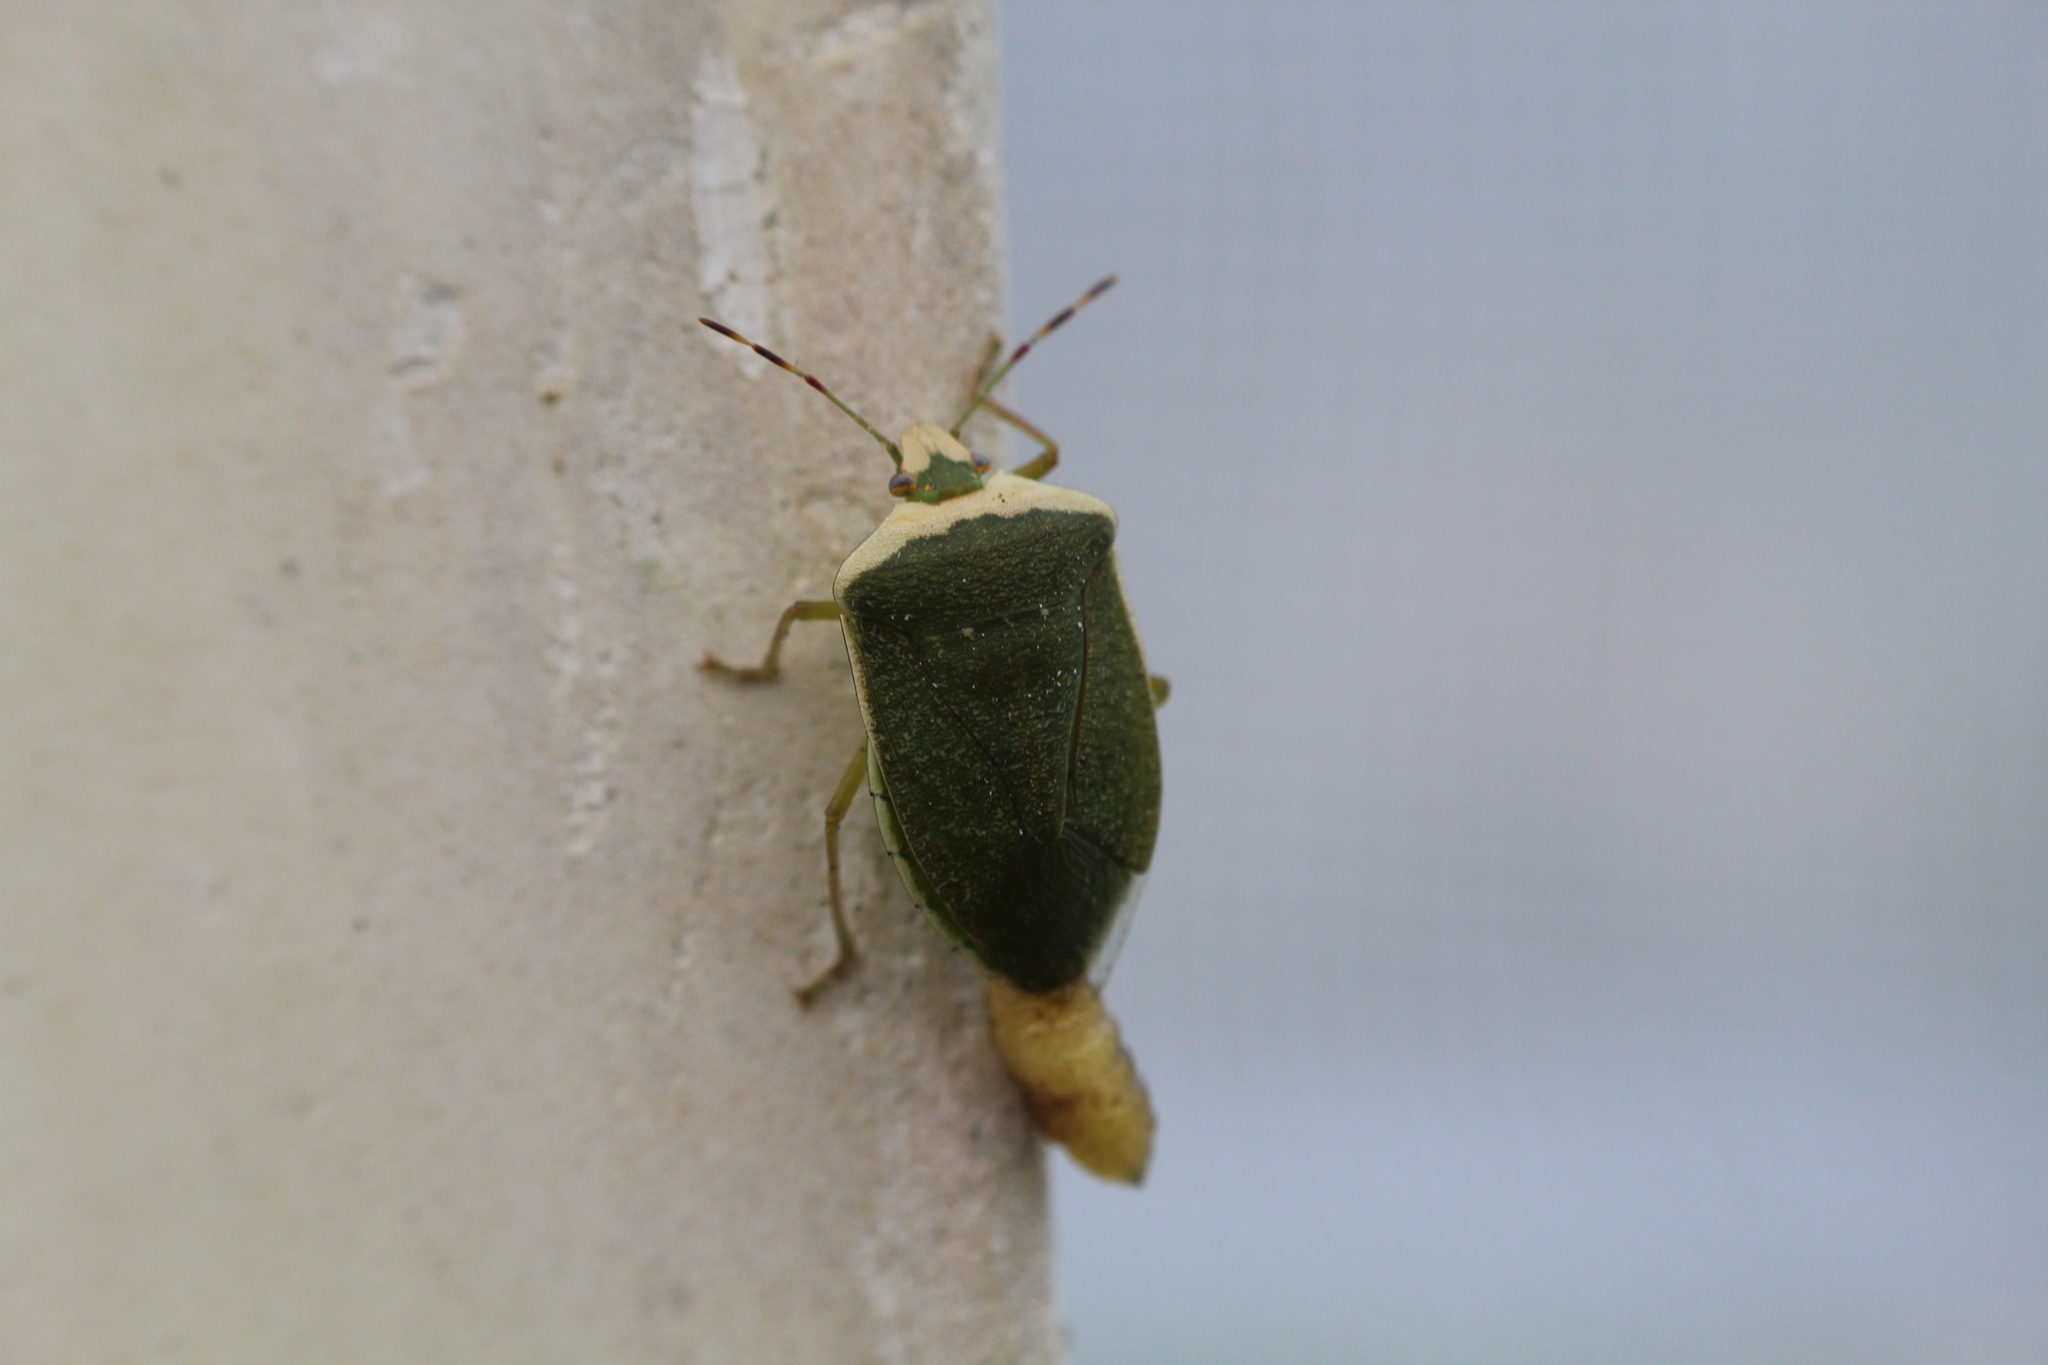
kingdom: Animalia
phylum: Arthropoda
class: Insecta
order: Hemiptera
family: Pentatomidae
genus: Nezara
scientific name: Nezara viridula
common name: Southern green stink bug
